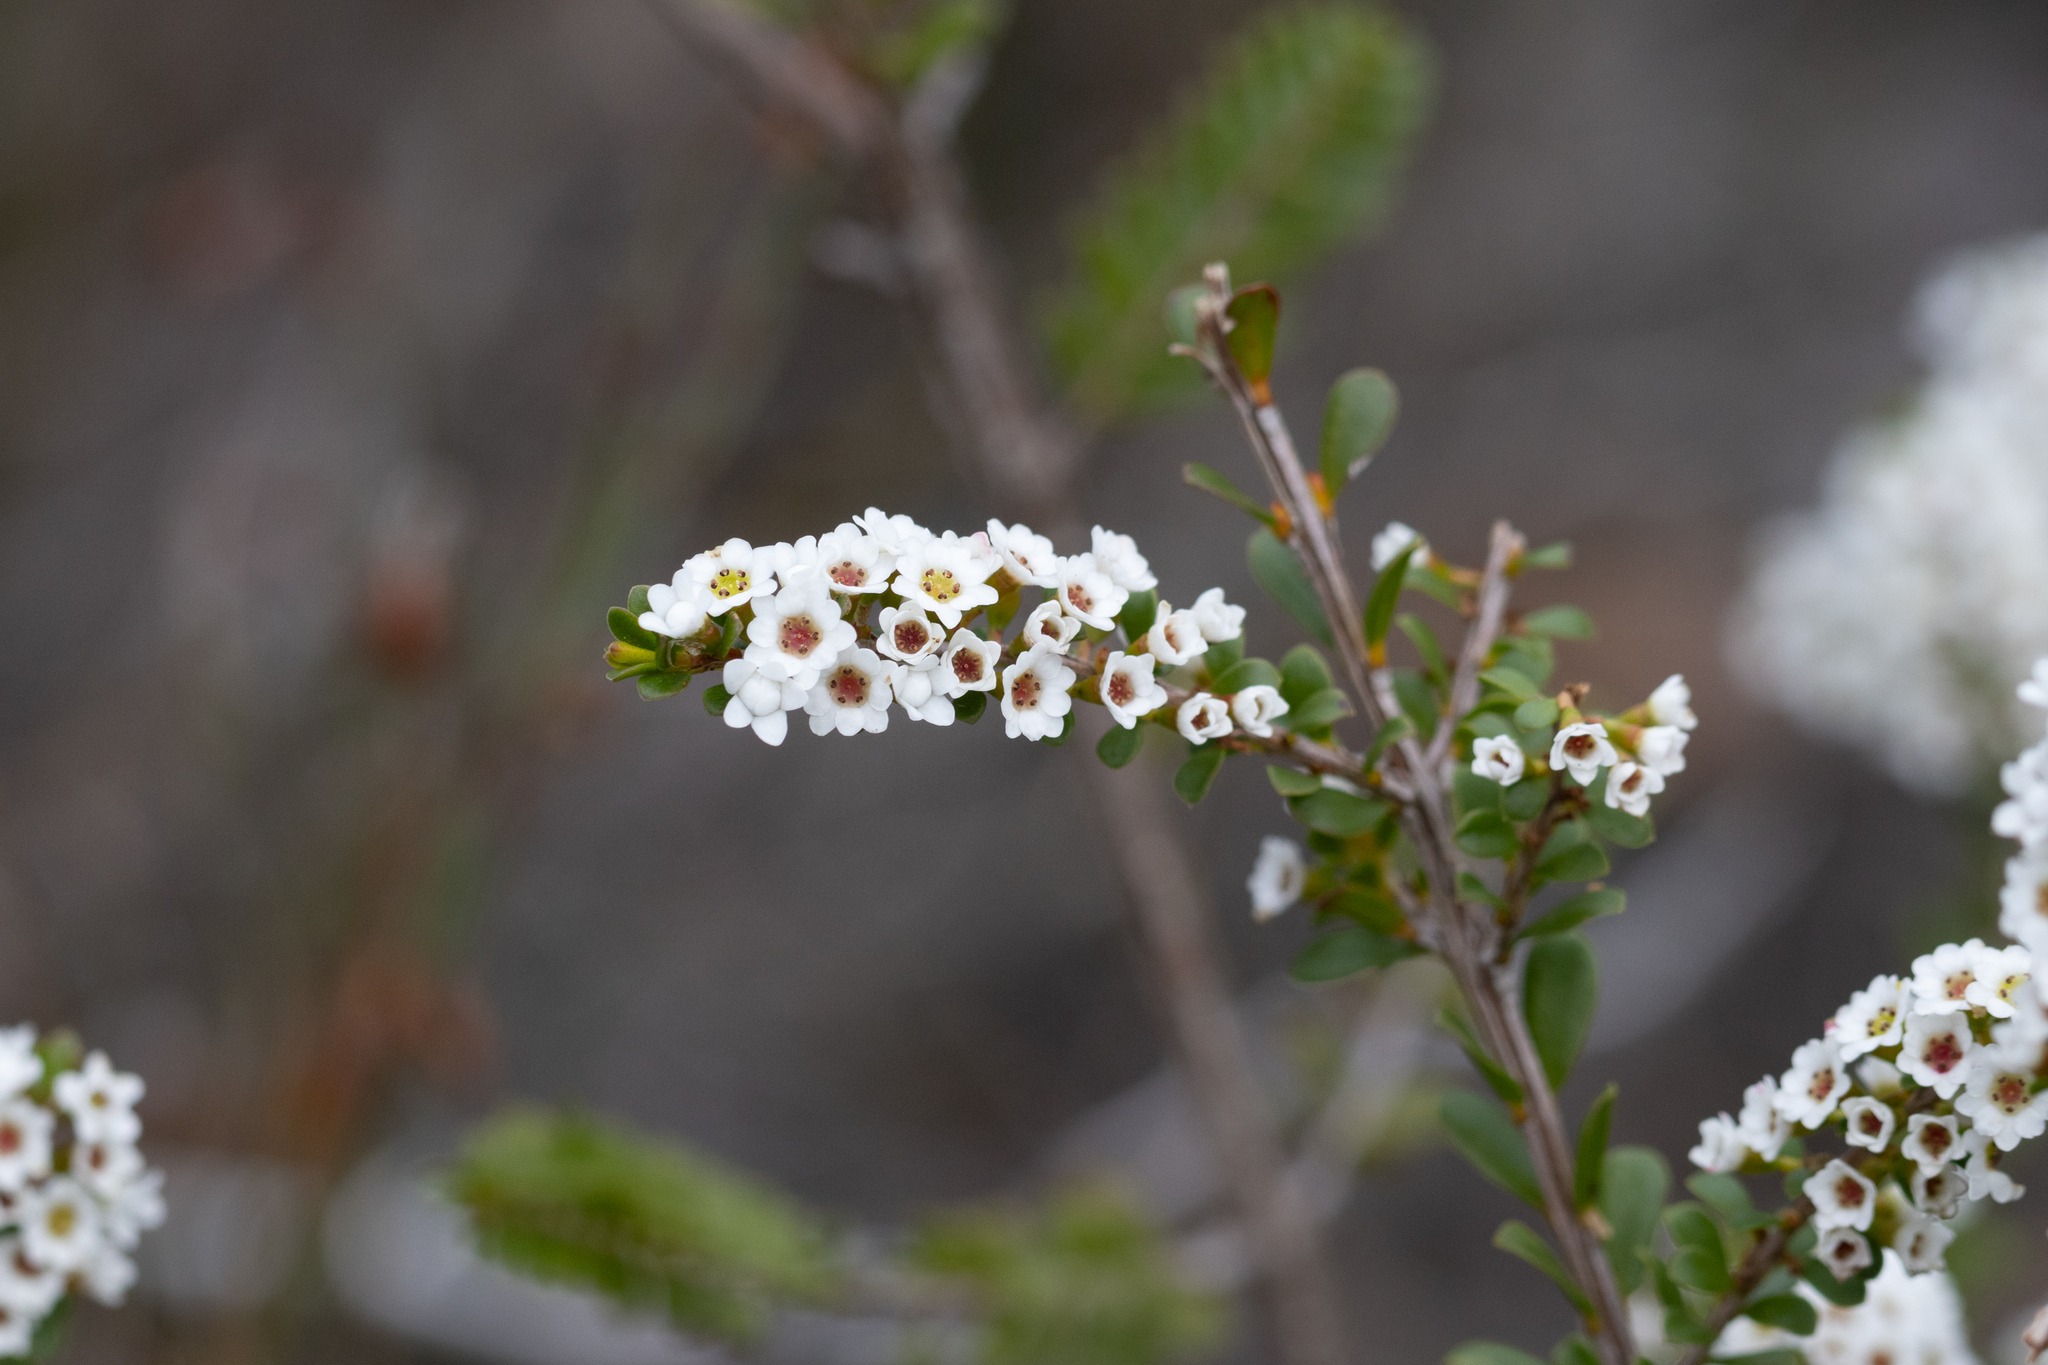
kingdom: Plantae
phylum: Tracheophyta
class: Magnoliopsida
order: Myrtales
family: Myrtaceae
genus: Thryptomene
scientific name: Thryptomene calycina
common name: Grampians thryptomene
